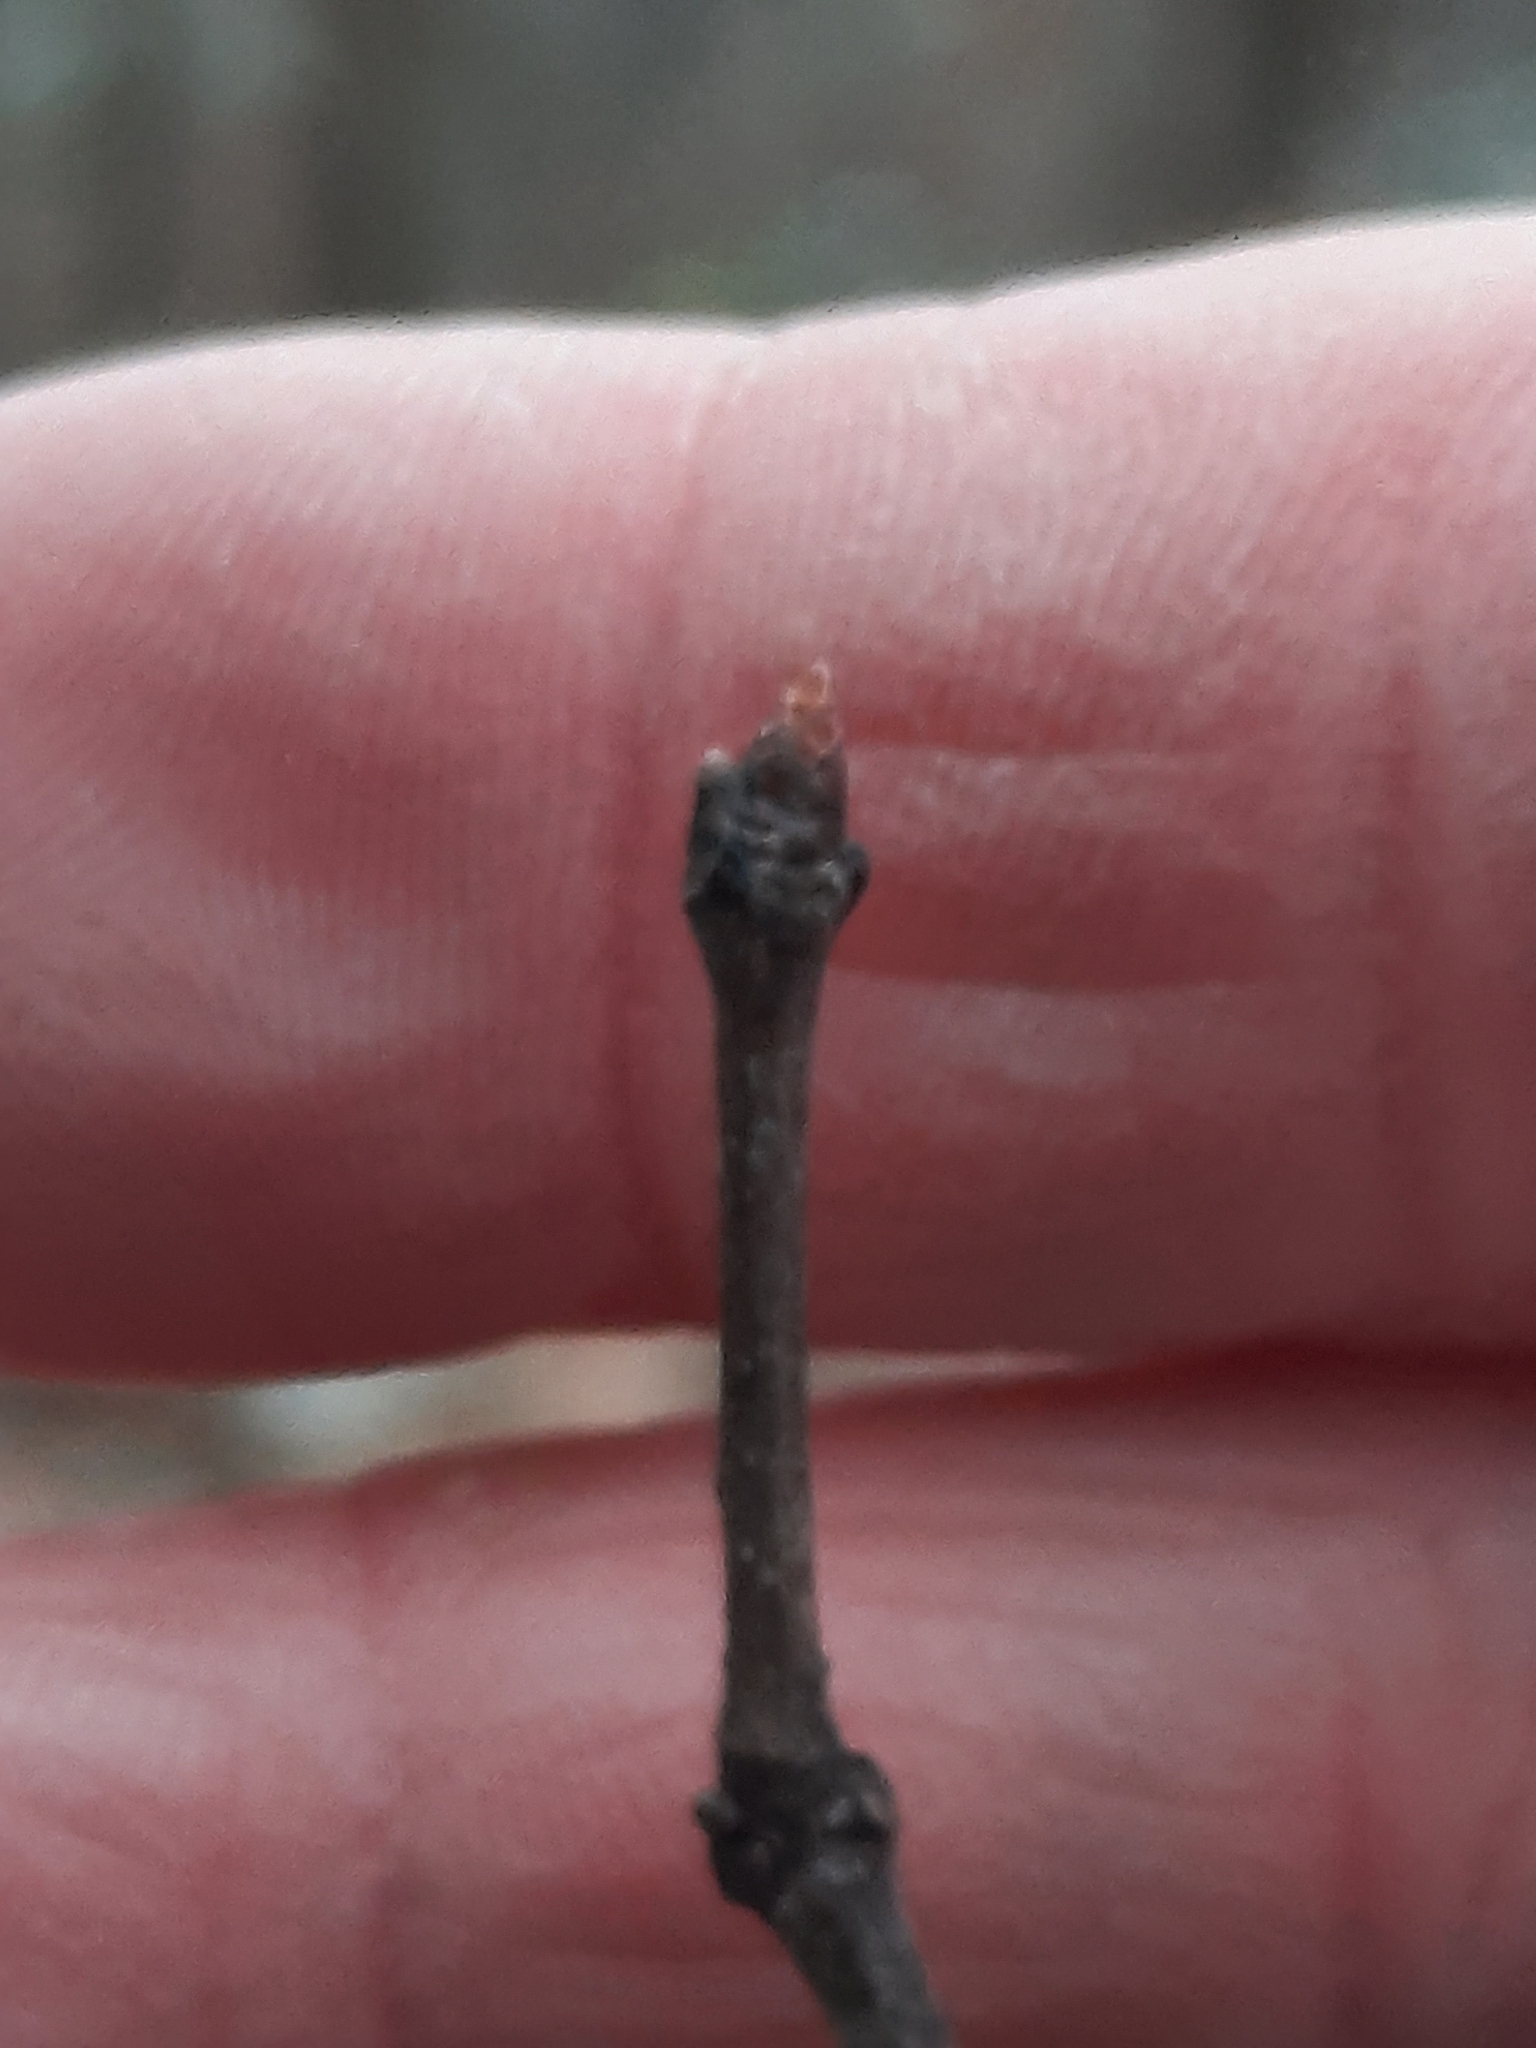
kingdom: Plantae
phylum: Tracheophyta
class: Magnoliopsida
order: Fagales
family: Fagaceae
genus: Quercus
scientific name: Quercus rubra
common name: Red oak
